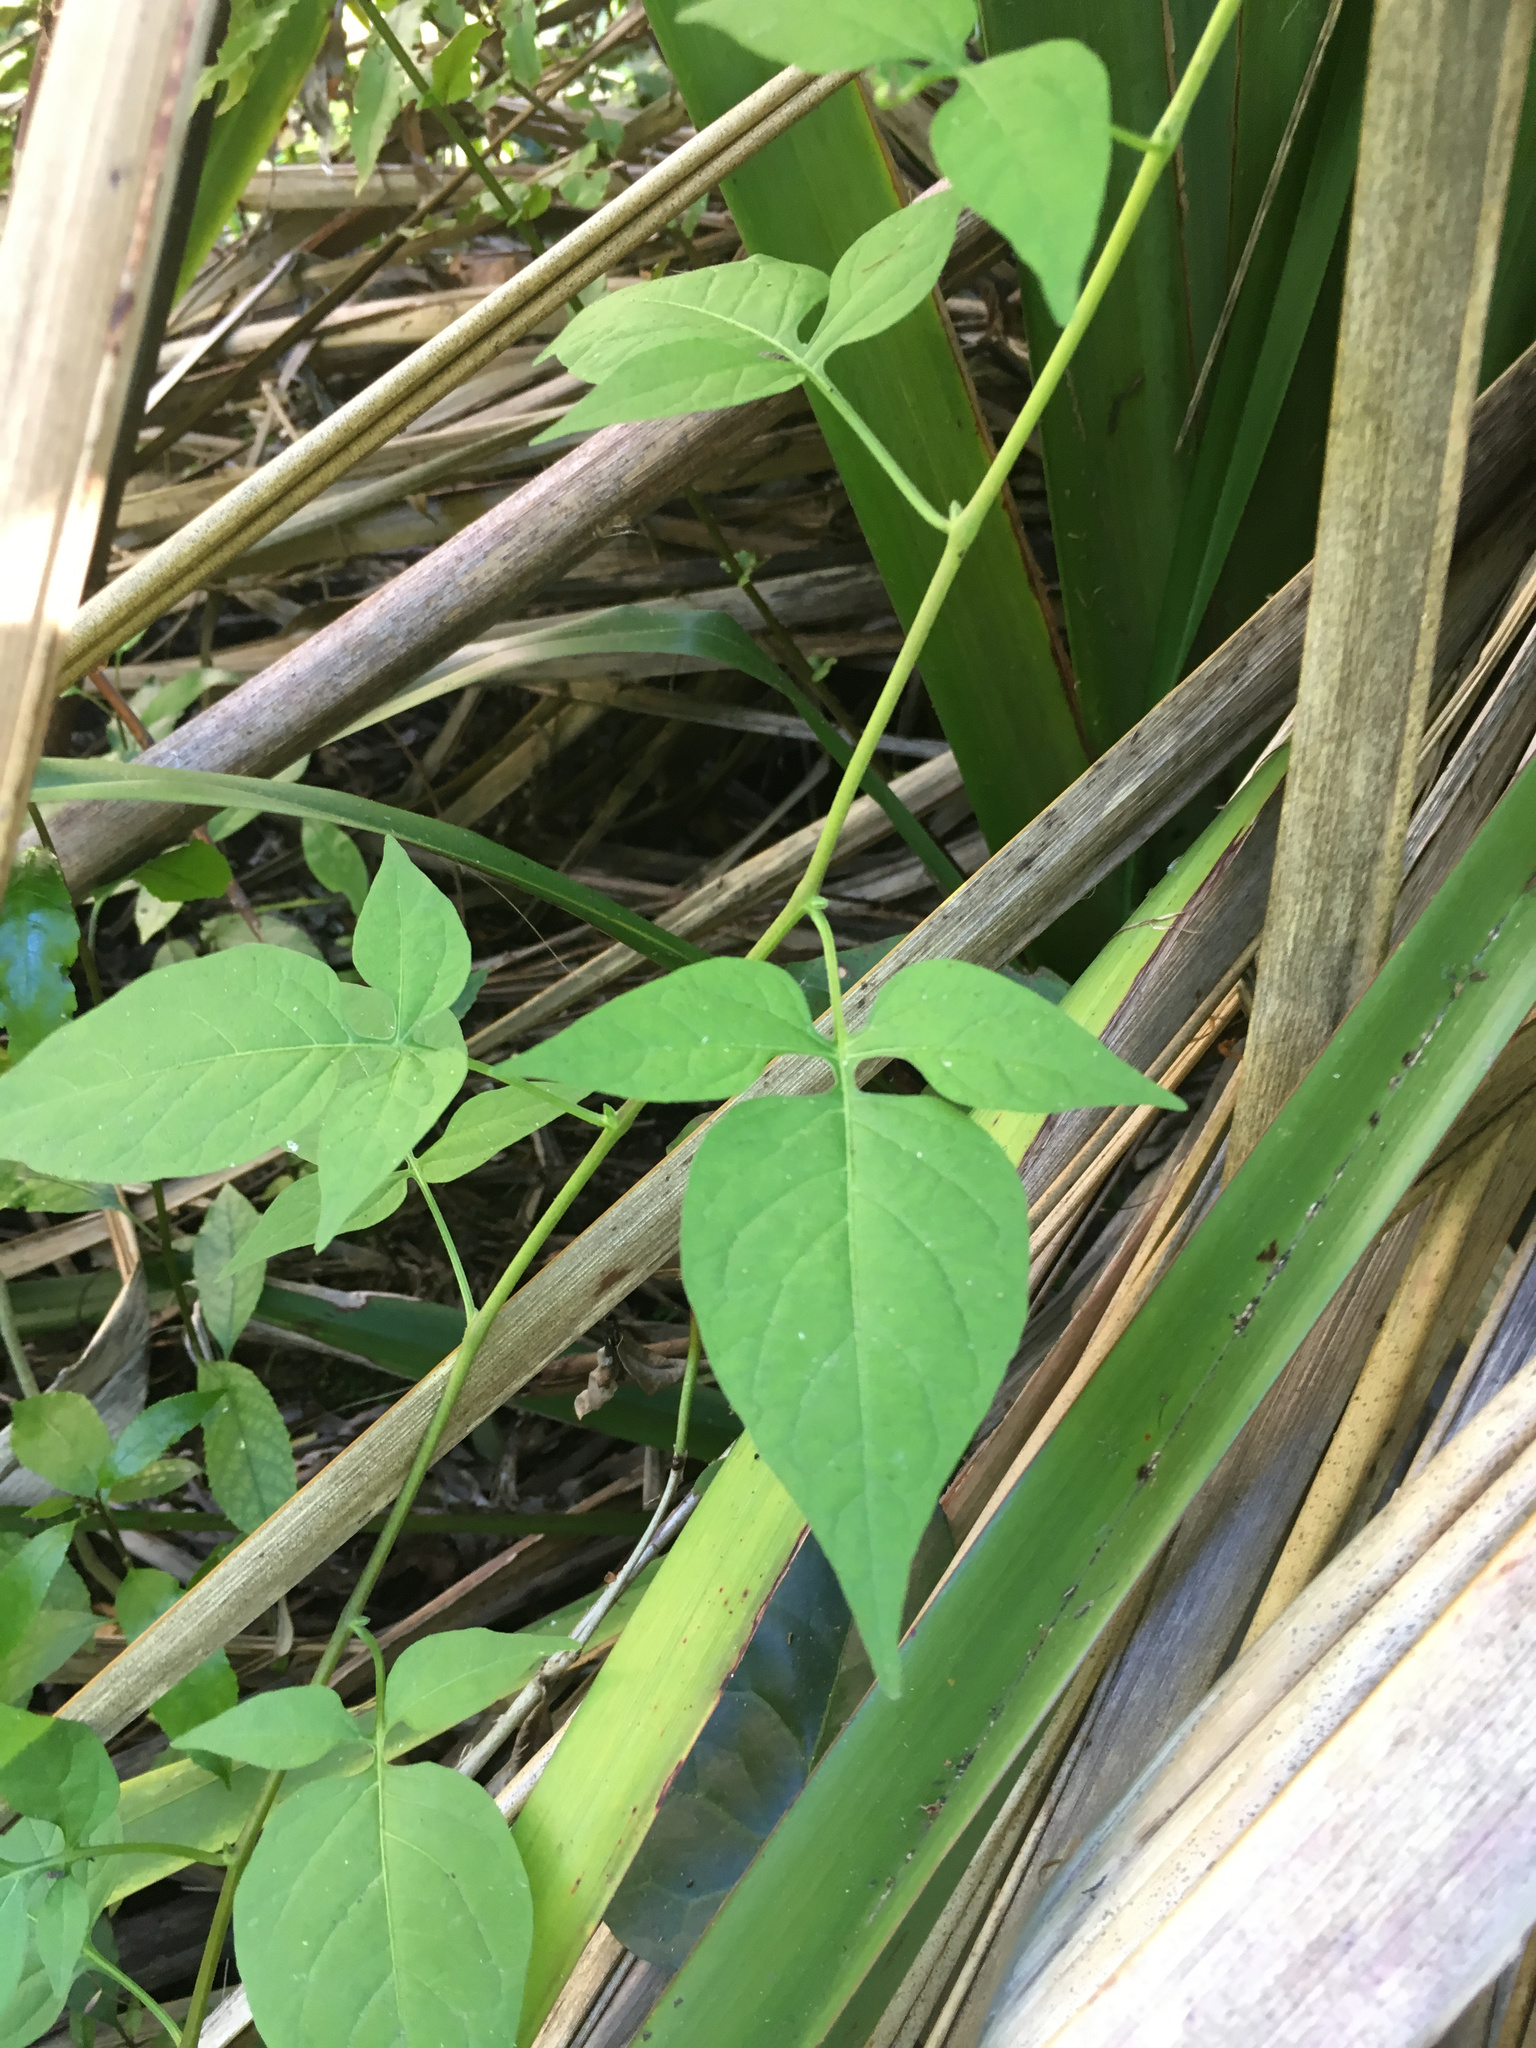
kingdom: Plantae
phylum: Tracheophyta
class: Magnoliopsida
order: Solanales
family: Solanaceae
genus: Solanum
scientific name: Solanum dulcamara
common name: Climbing nightshade
